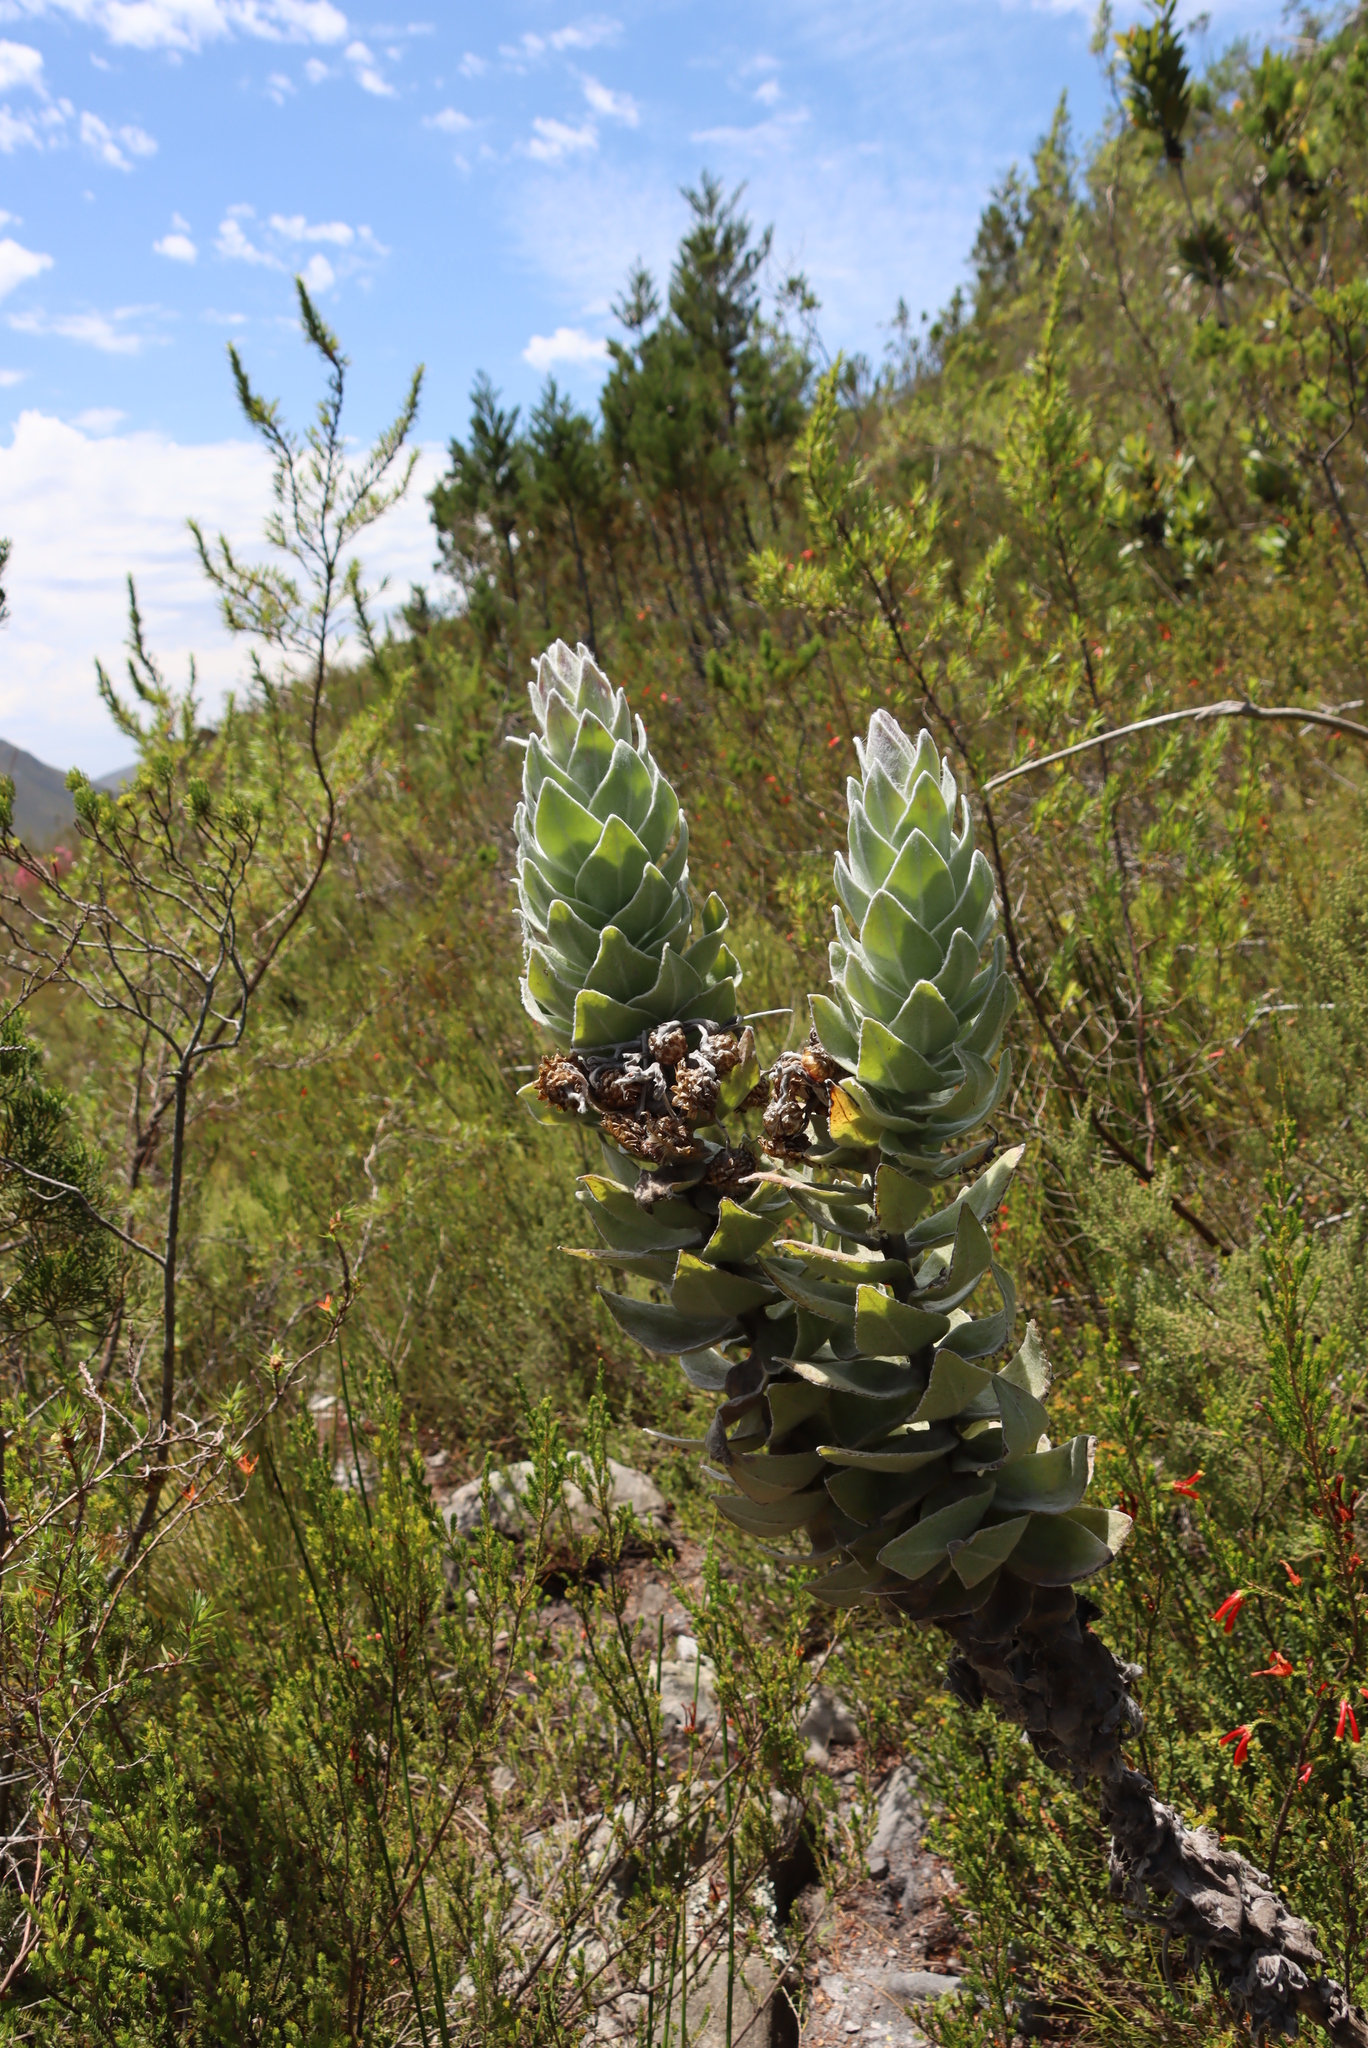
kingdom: Plantae
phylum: Tracheophyta
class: Magnoliopsida
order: Asterales
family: Asteraceae
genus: Syncarpha
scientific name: Syncarpha eximia
